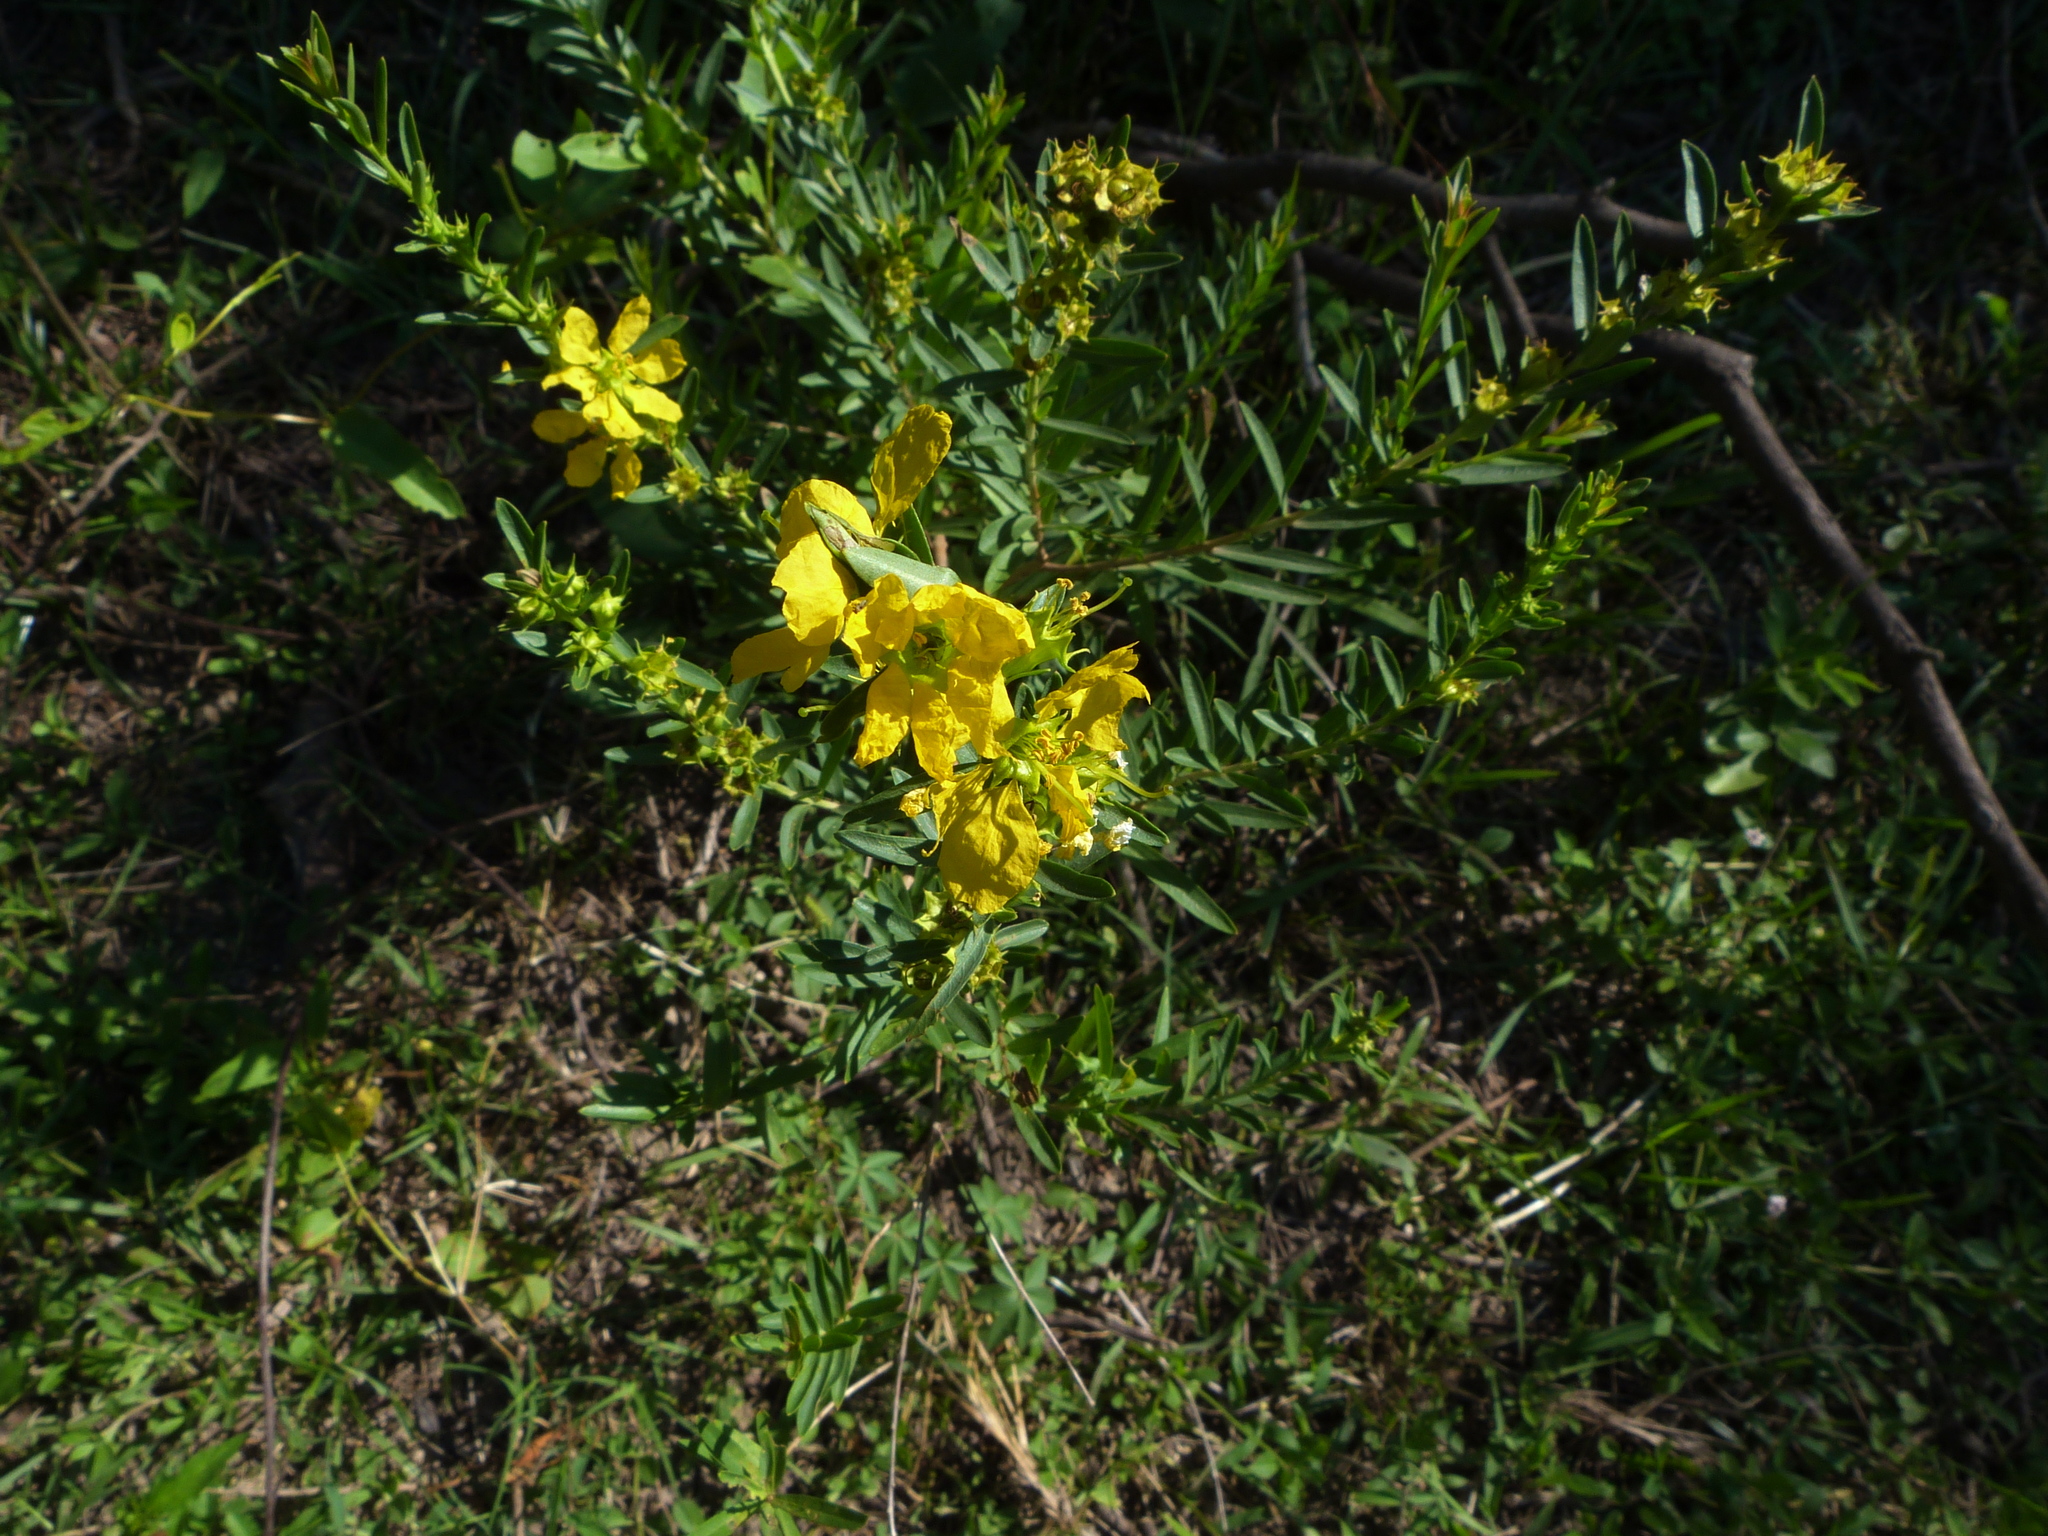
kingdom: Plantae
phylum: Tracheophyta
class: Magnoliopsida
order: Myrtales
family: Lythraceae
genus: Heimia
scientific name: Heimia salicifolia
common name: Willow-leaf heimia
